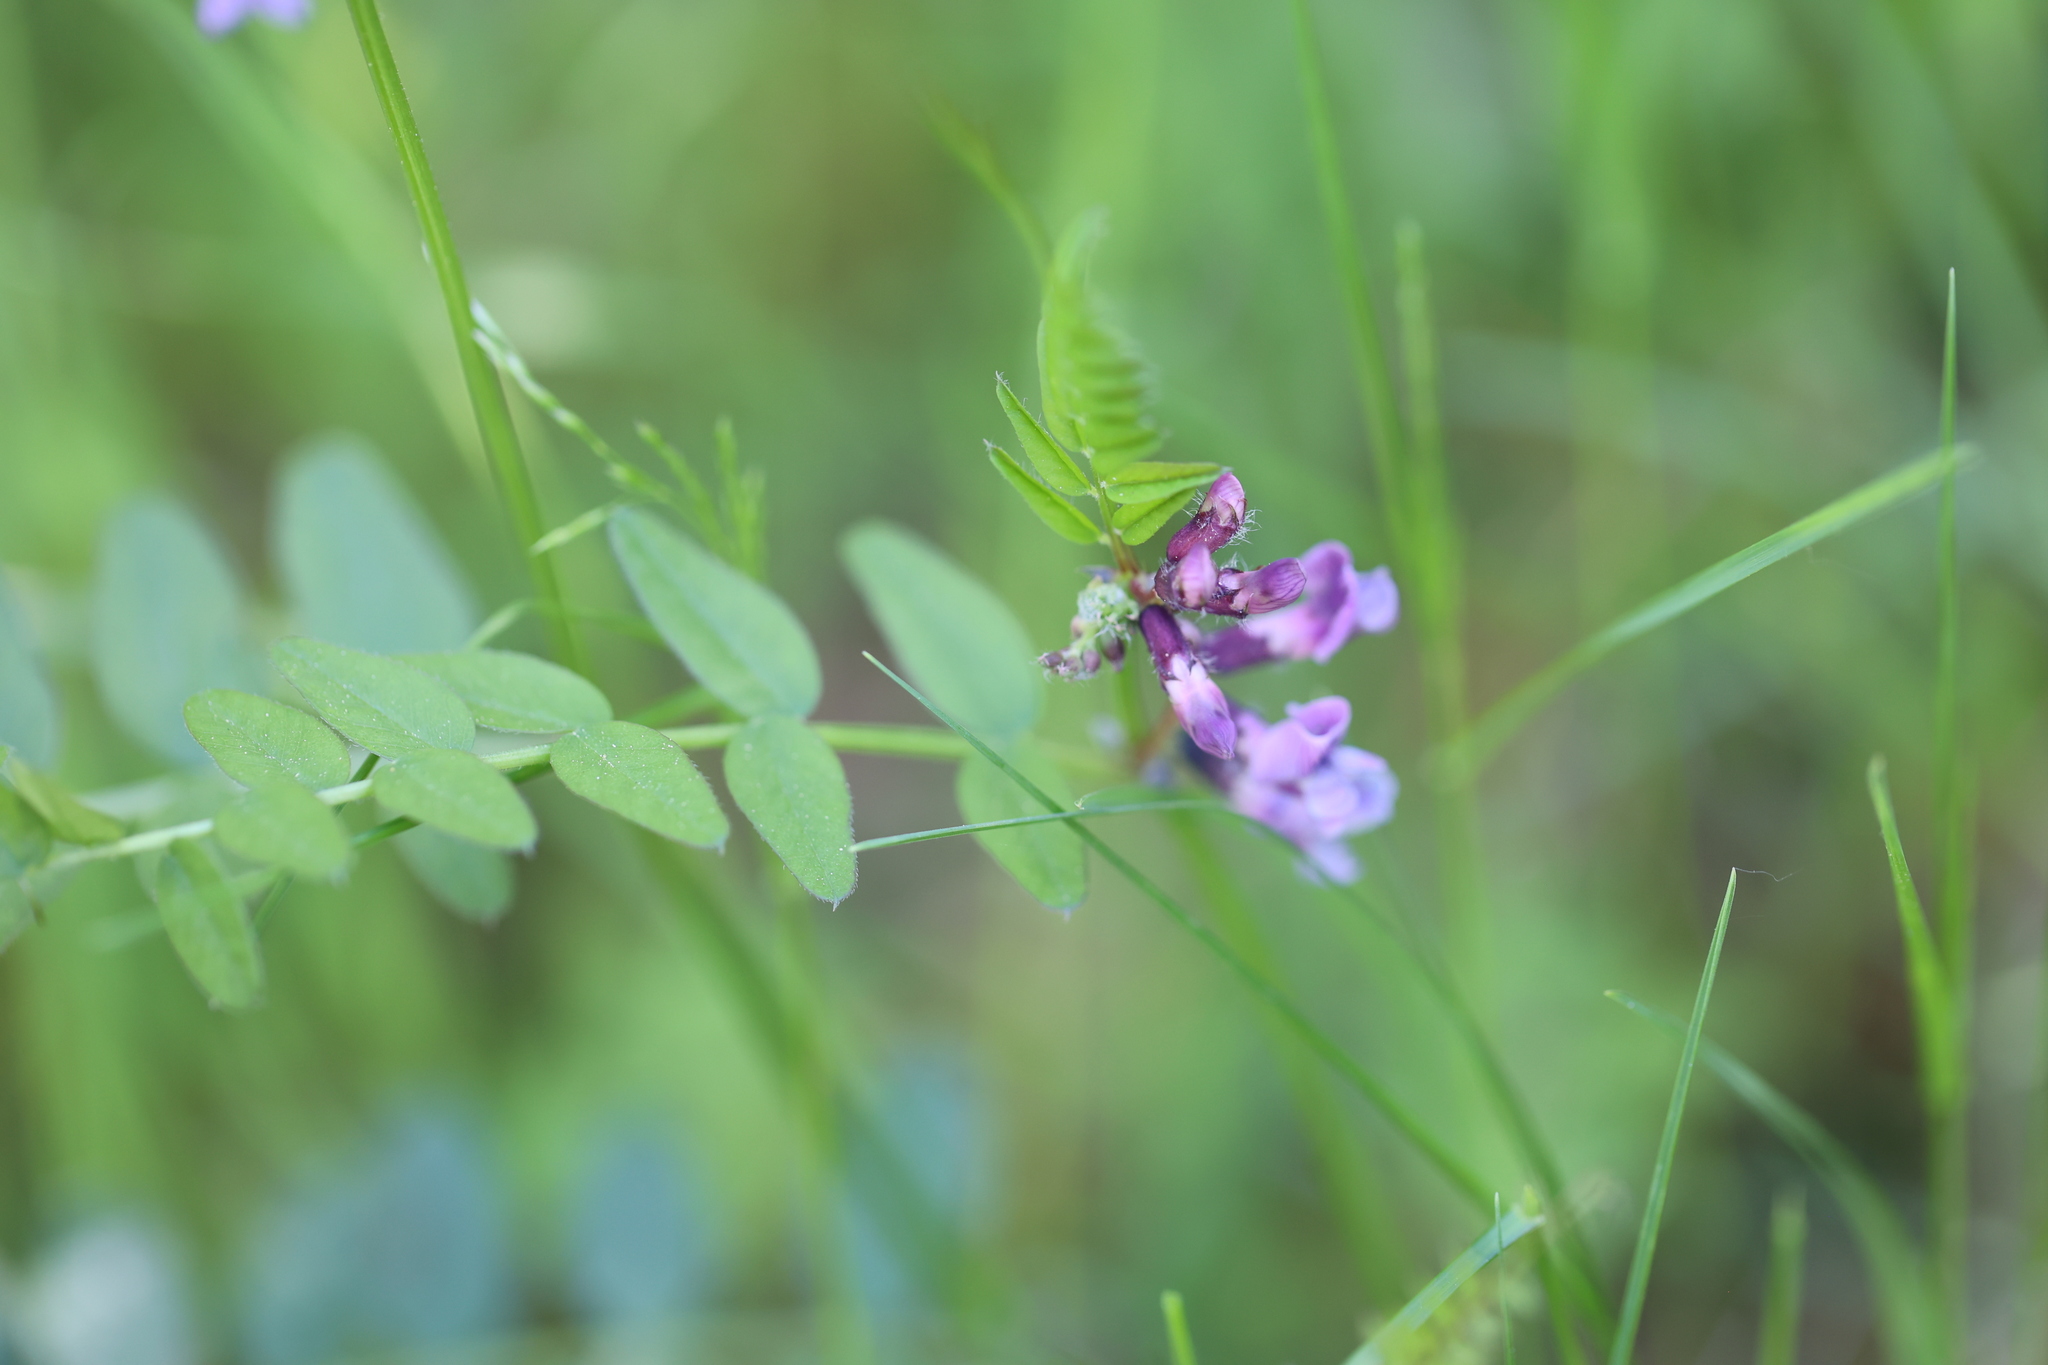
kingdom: Plantae
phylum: Tracheophyta
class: Magnoliopsida
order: Fabales
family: Fabaceae
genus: Vicia
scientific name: Vicia sepium
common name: Bush vetch
